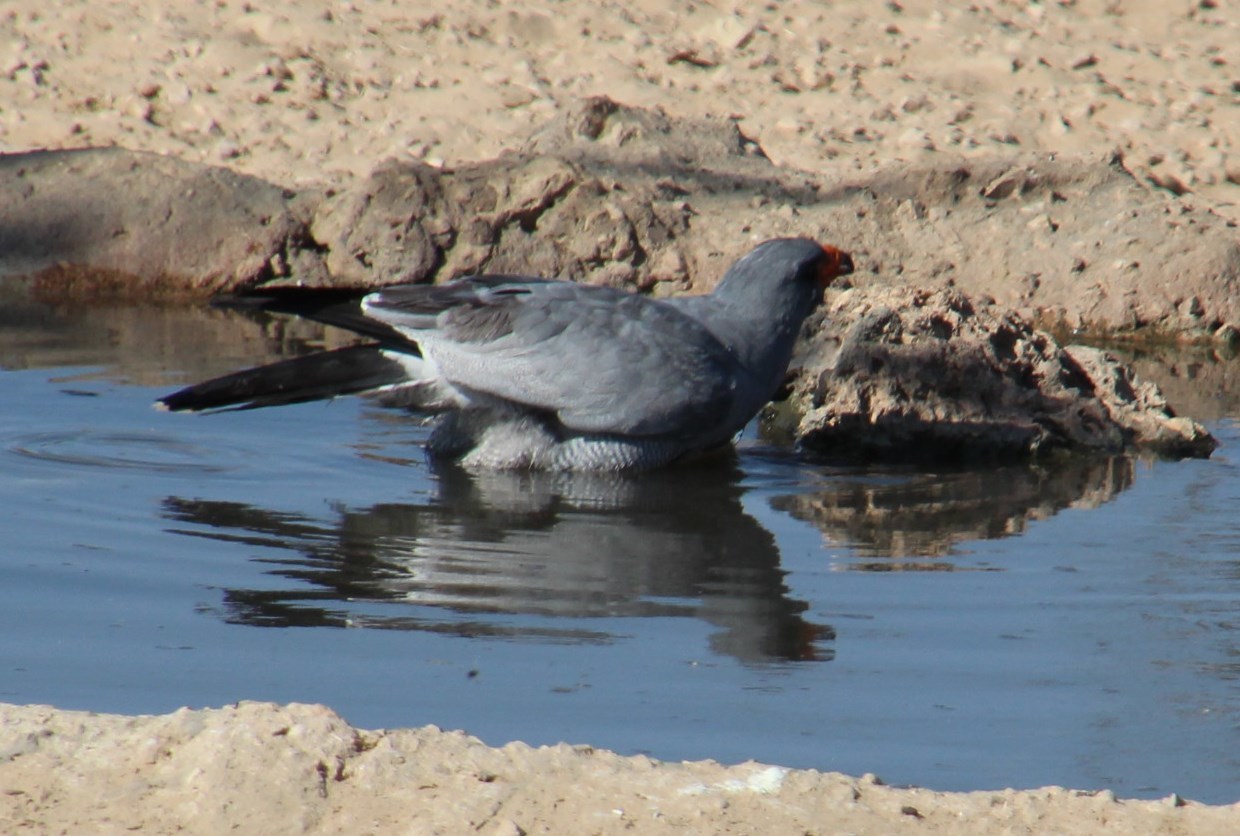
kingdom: Animalia
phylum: Chordata
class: Aves
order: Accipitriformes
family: Accipitridae
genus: Melierax
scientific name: Melierax canorus
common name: Pale chanting-goshawk
